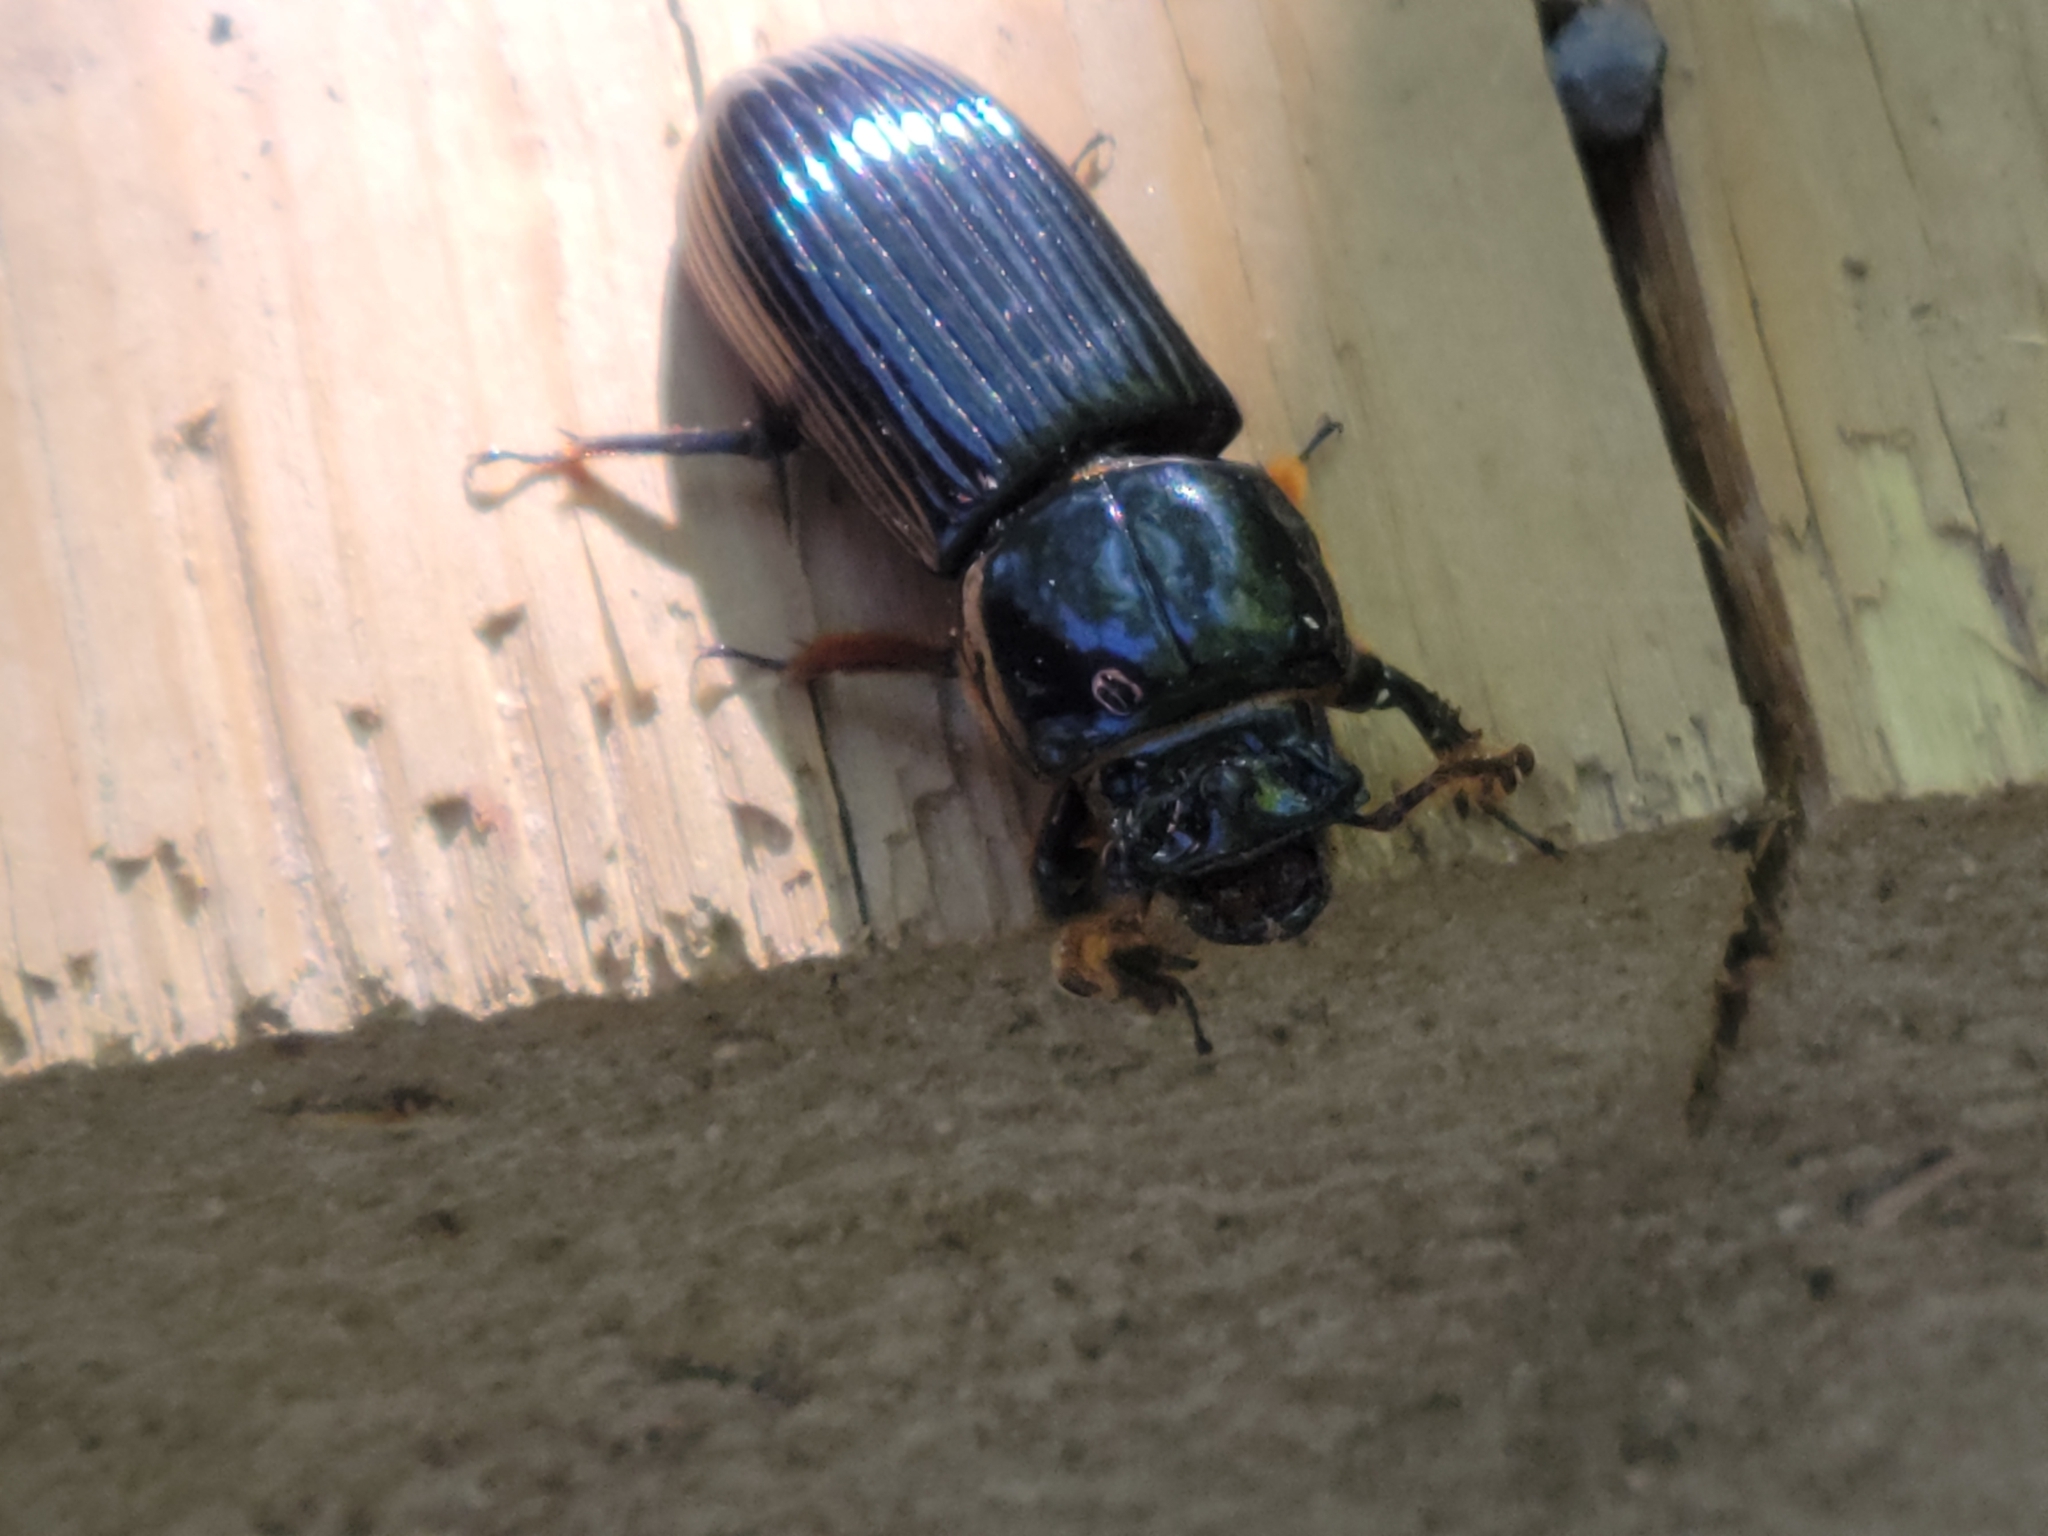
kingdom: Animalia
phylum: Arthropoda
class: Insecta
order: Coleoptera
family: Passalidae
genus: Odontotaenius
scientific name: Odontotaenius disjunctus
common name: Patent leather beetle
